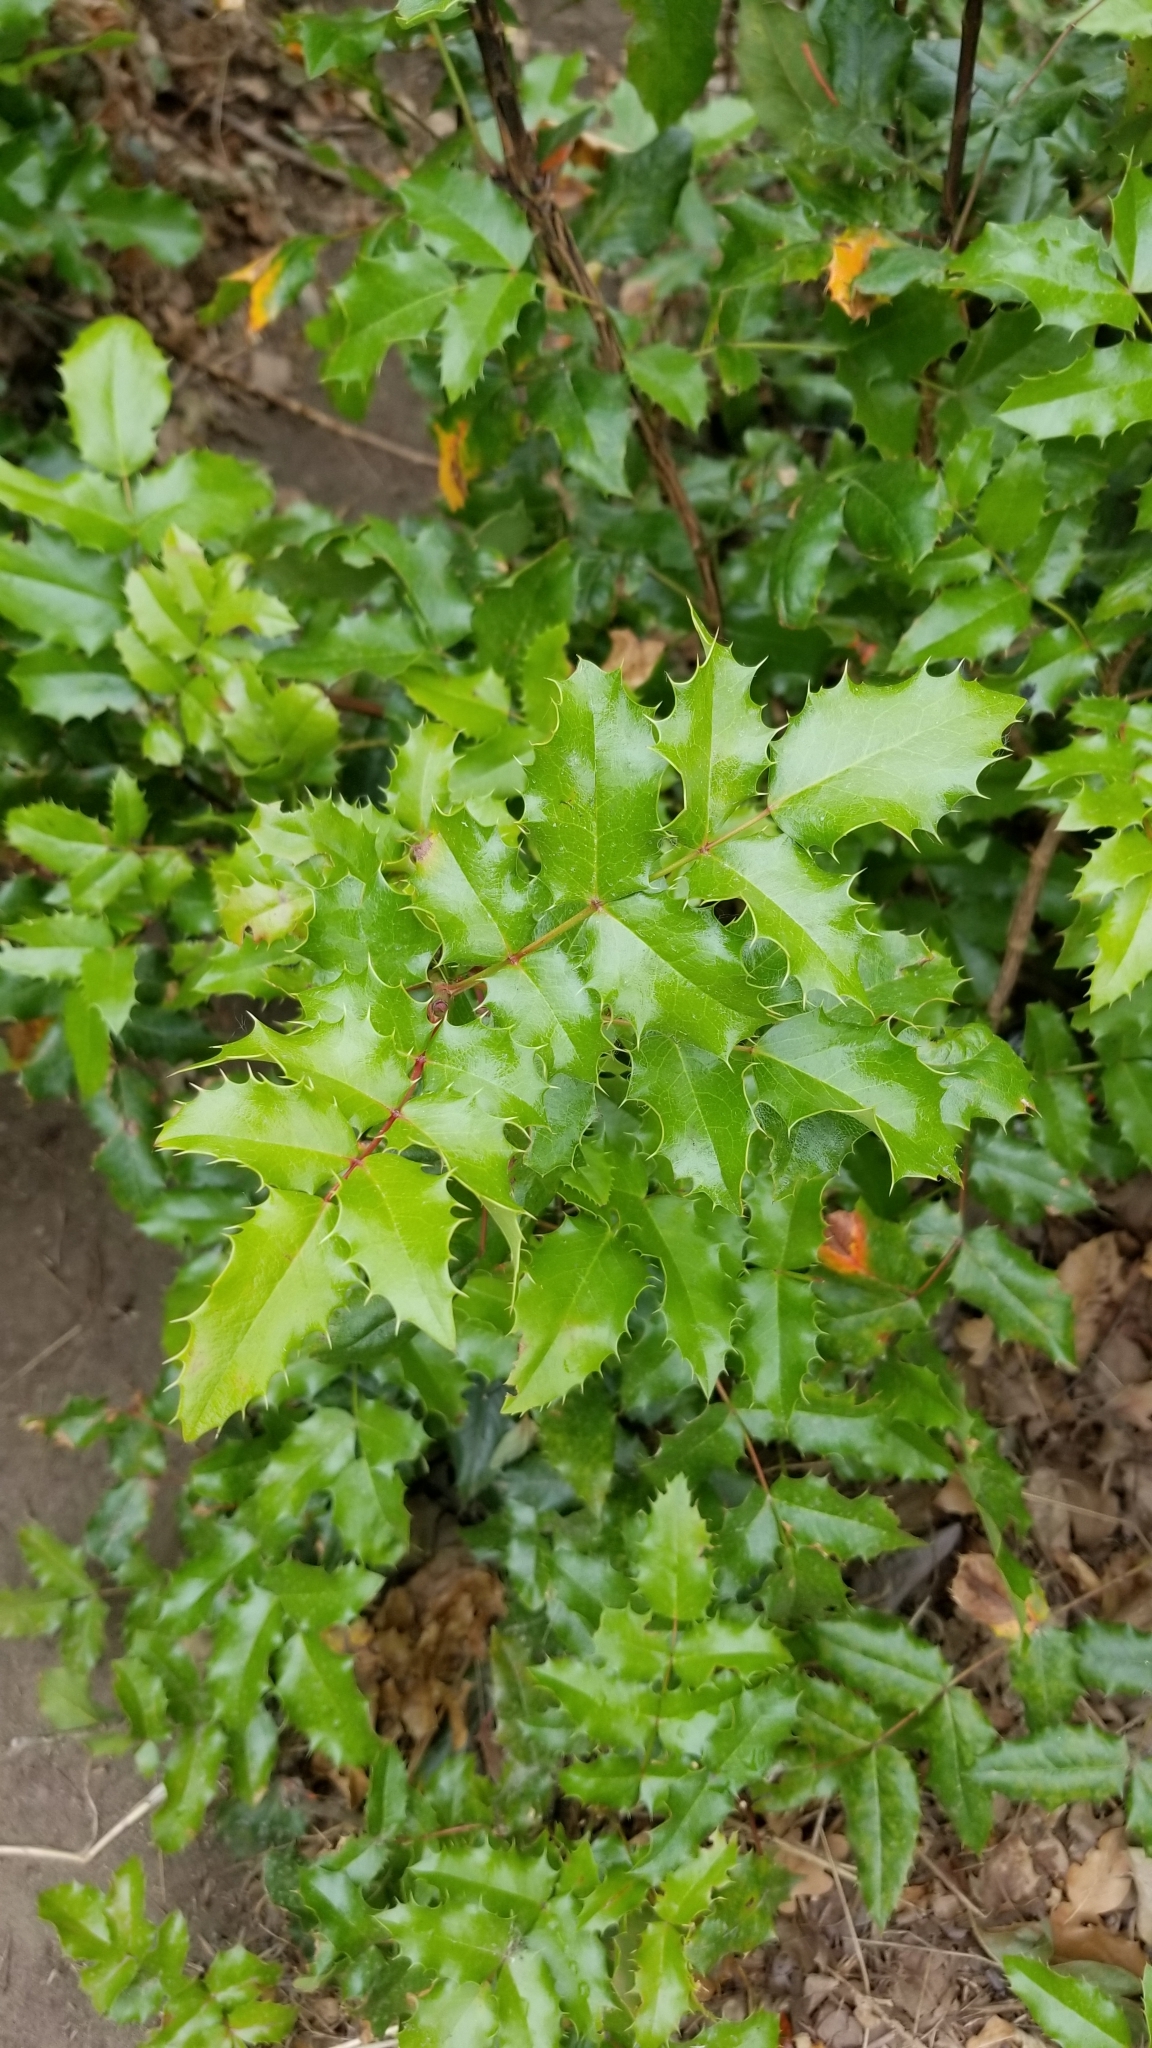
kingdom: Plantae
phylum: Tracheophyta
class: Magnoliopsida
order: Ranunculales
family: Berberidaceae
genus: Mahonia
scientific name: Mahonia aquifolium
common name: Oregon-grape
